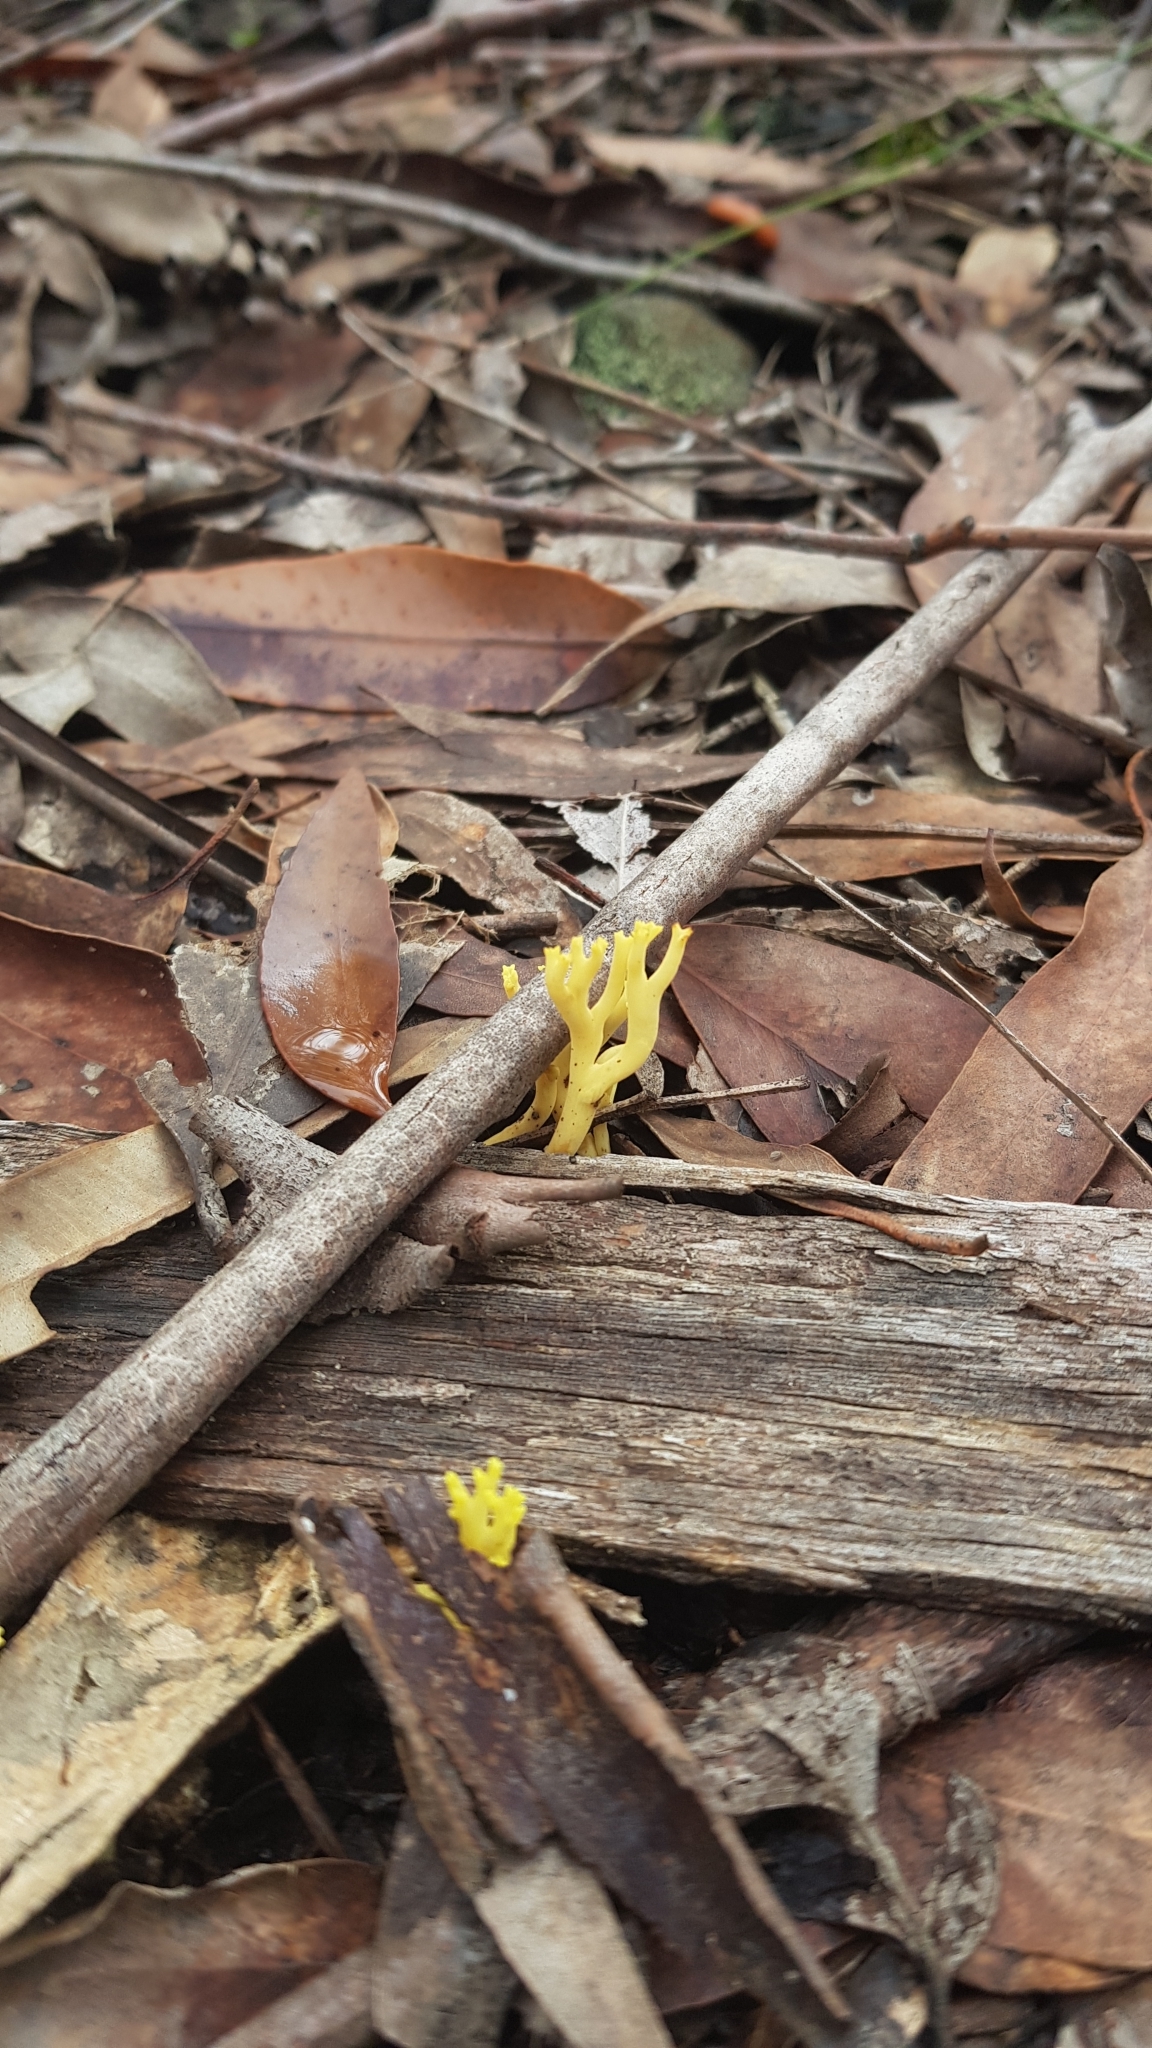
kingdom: Fungi
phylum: Basidiomycota
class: Agaricomycetes
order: Gomphales
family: Gomphaceae
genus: Ramaria
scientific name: Ramaria lorithamnus
